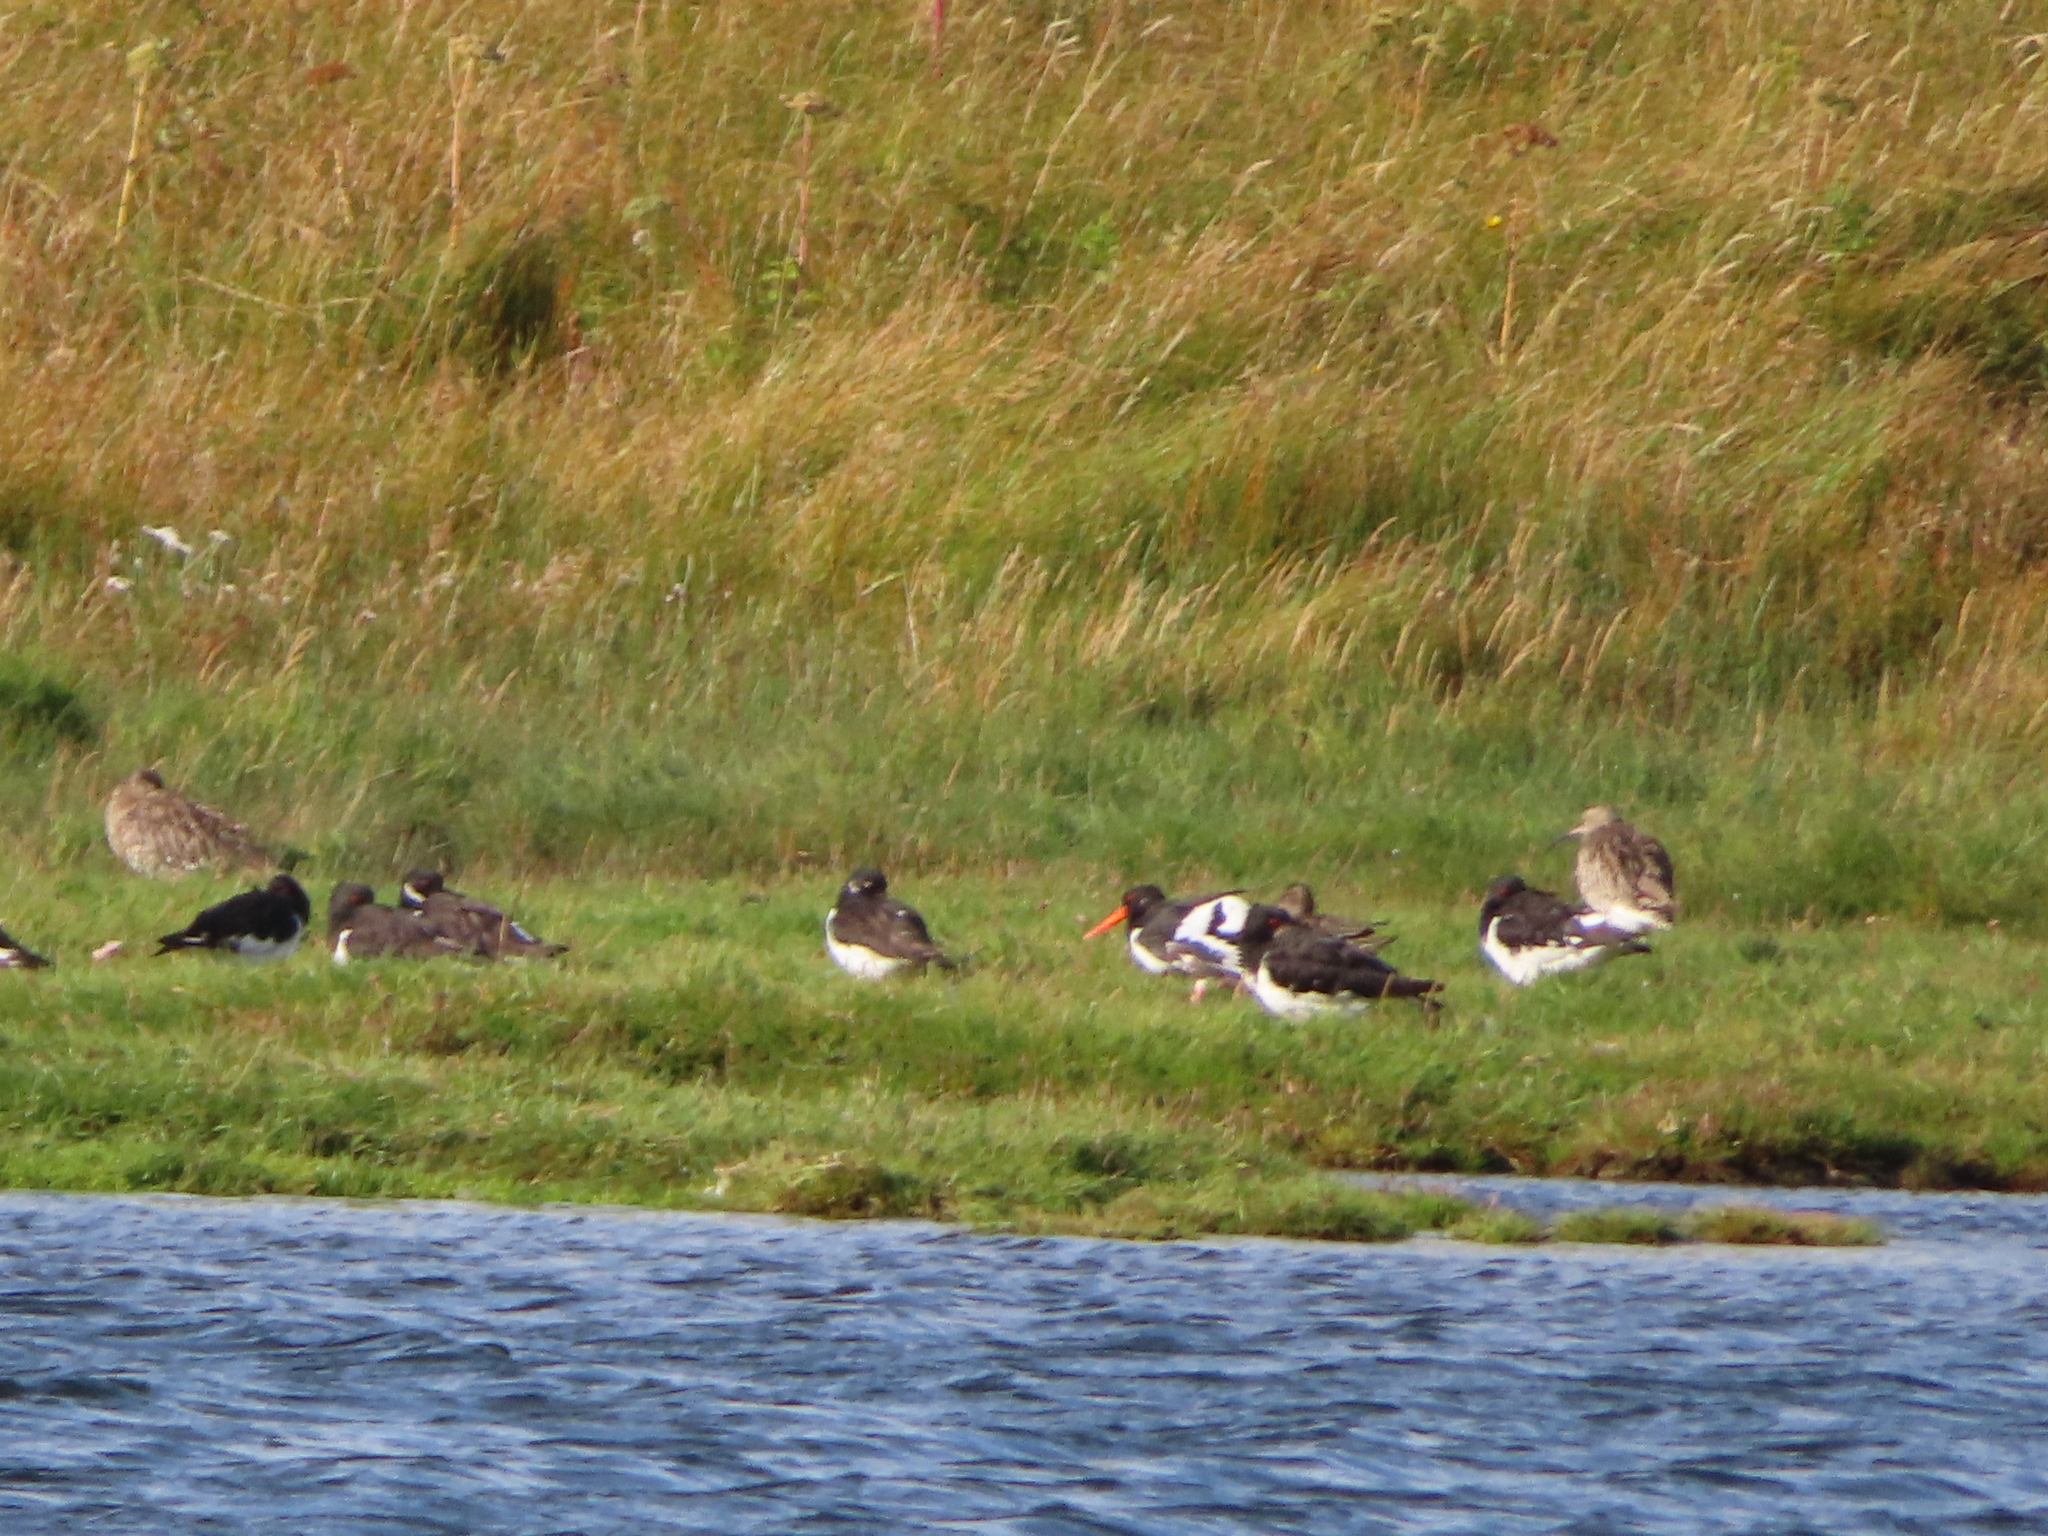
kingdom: Animalia
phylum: Chordata
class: Aves
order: Charadriiformes
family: Haematopodidae
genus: Haematopus
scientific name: Haematopus ostralegus
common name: Eurasian oystercatcher
